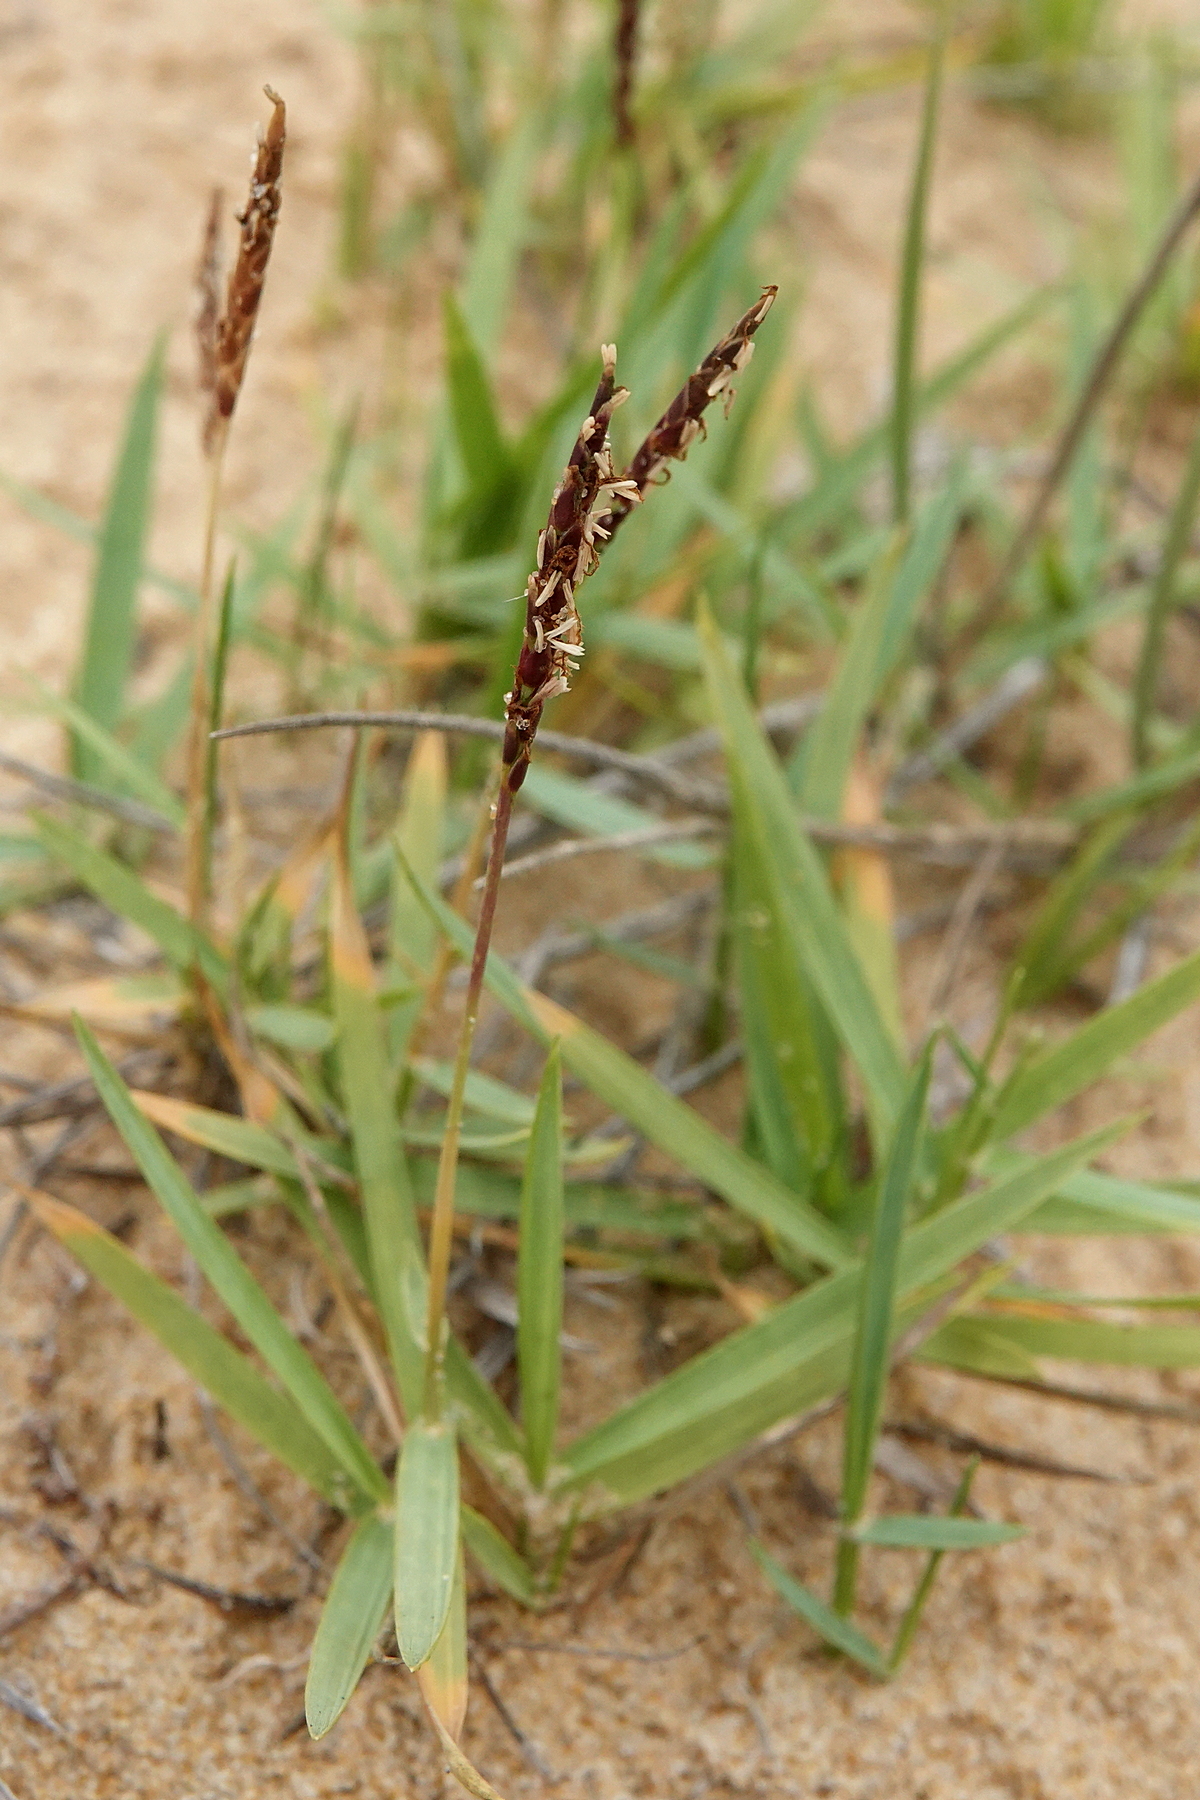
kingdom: Plantae
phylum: Tracheophyta
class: Liliopsida
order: Poales
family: Poaceae
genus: Zoysia
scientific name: Zoysia macrantha
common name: Korean lawn grass
